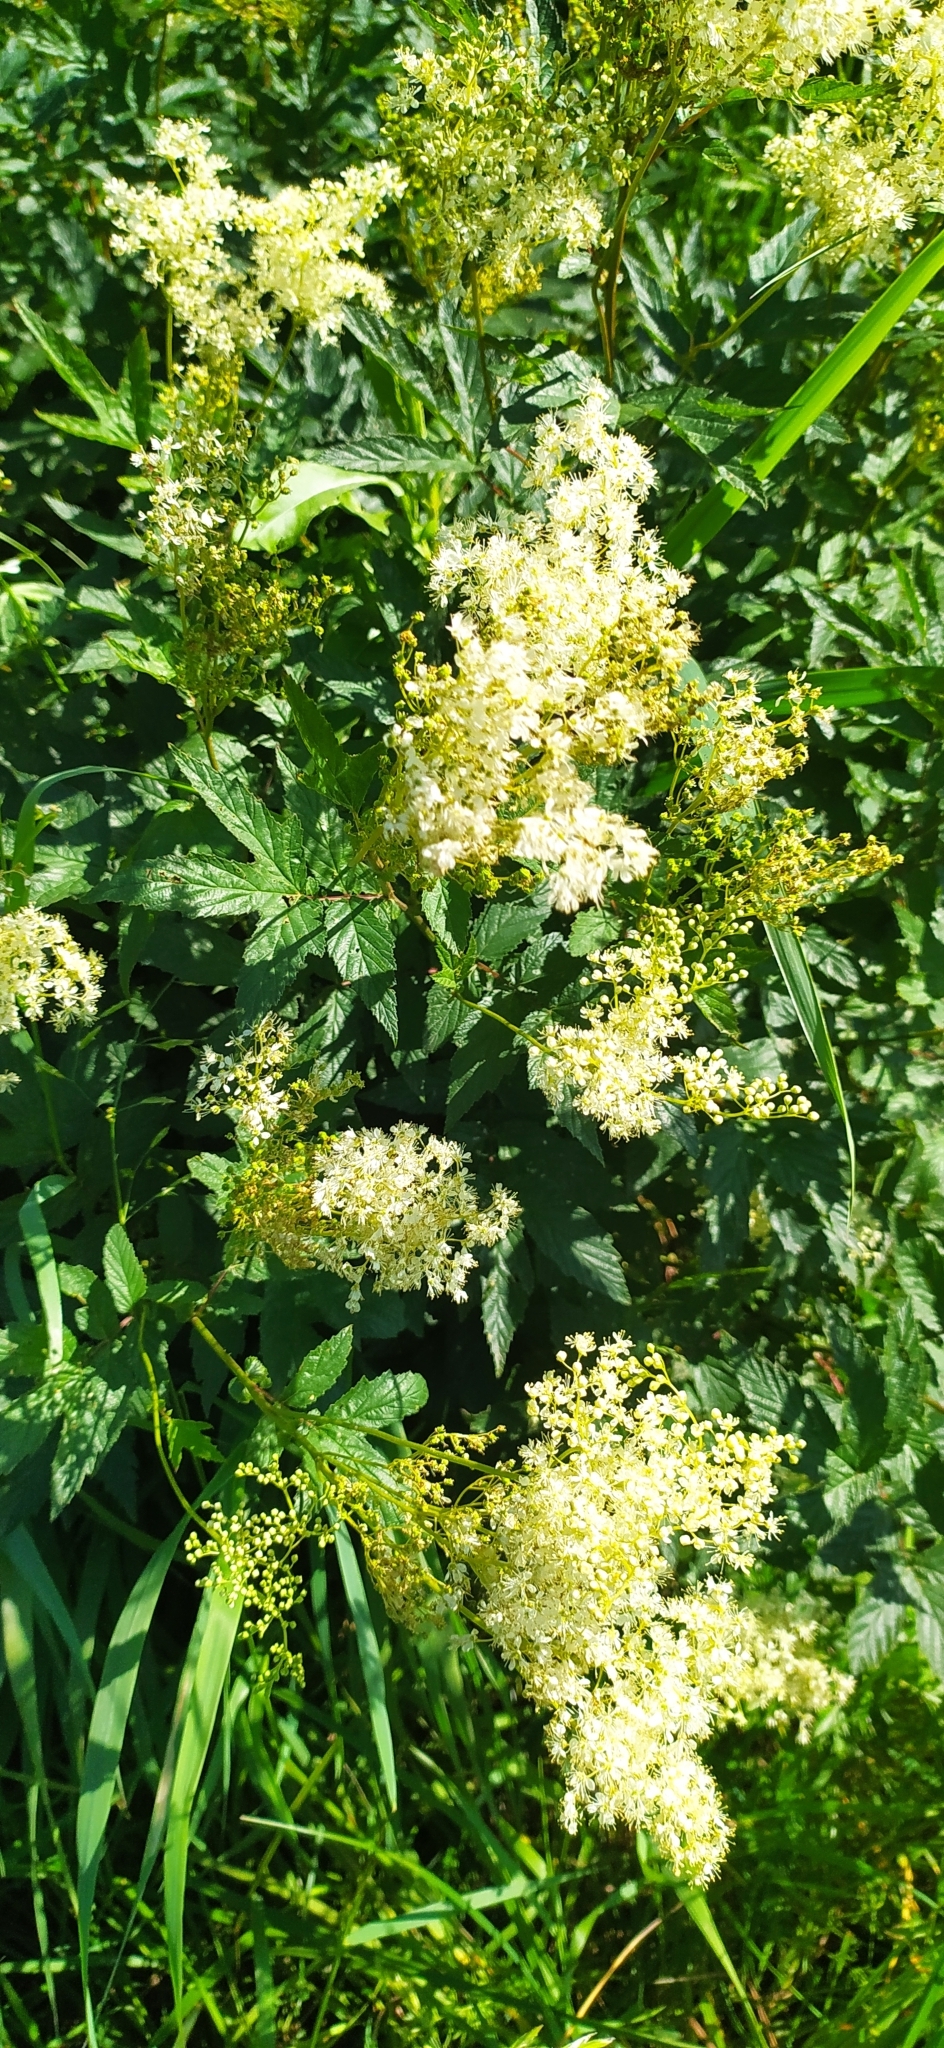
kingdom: Plantae
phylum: Tracheophyta
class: Magnoliopsida
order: Rosales
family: Rosaceae
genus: Filipendula
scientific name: Filipendula ulmaria
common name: Meadowsweet
